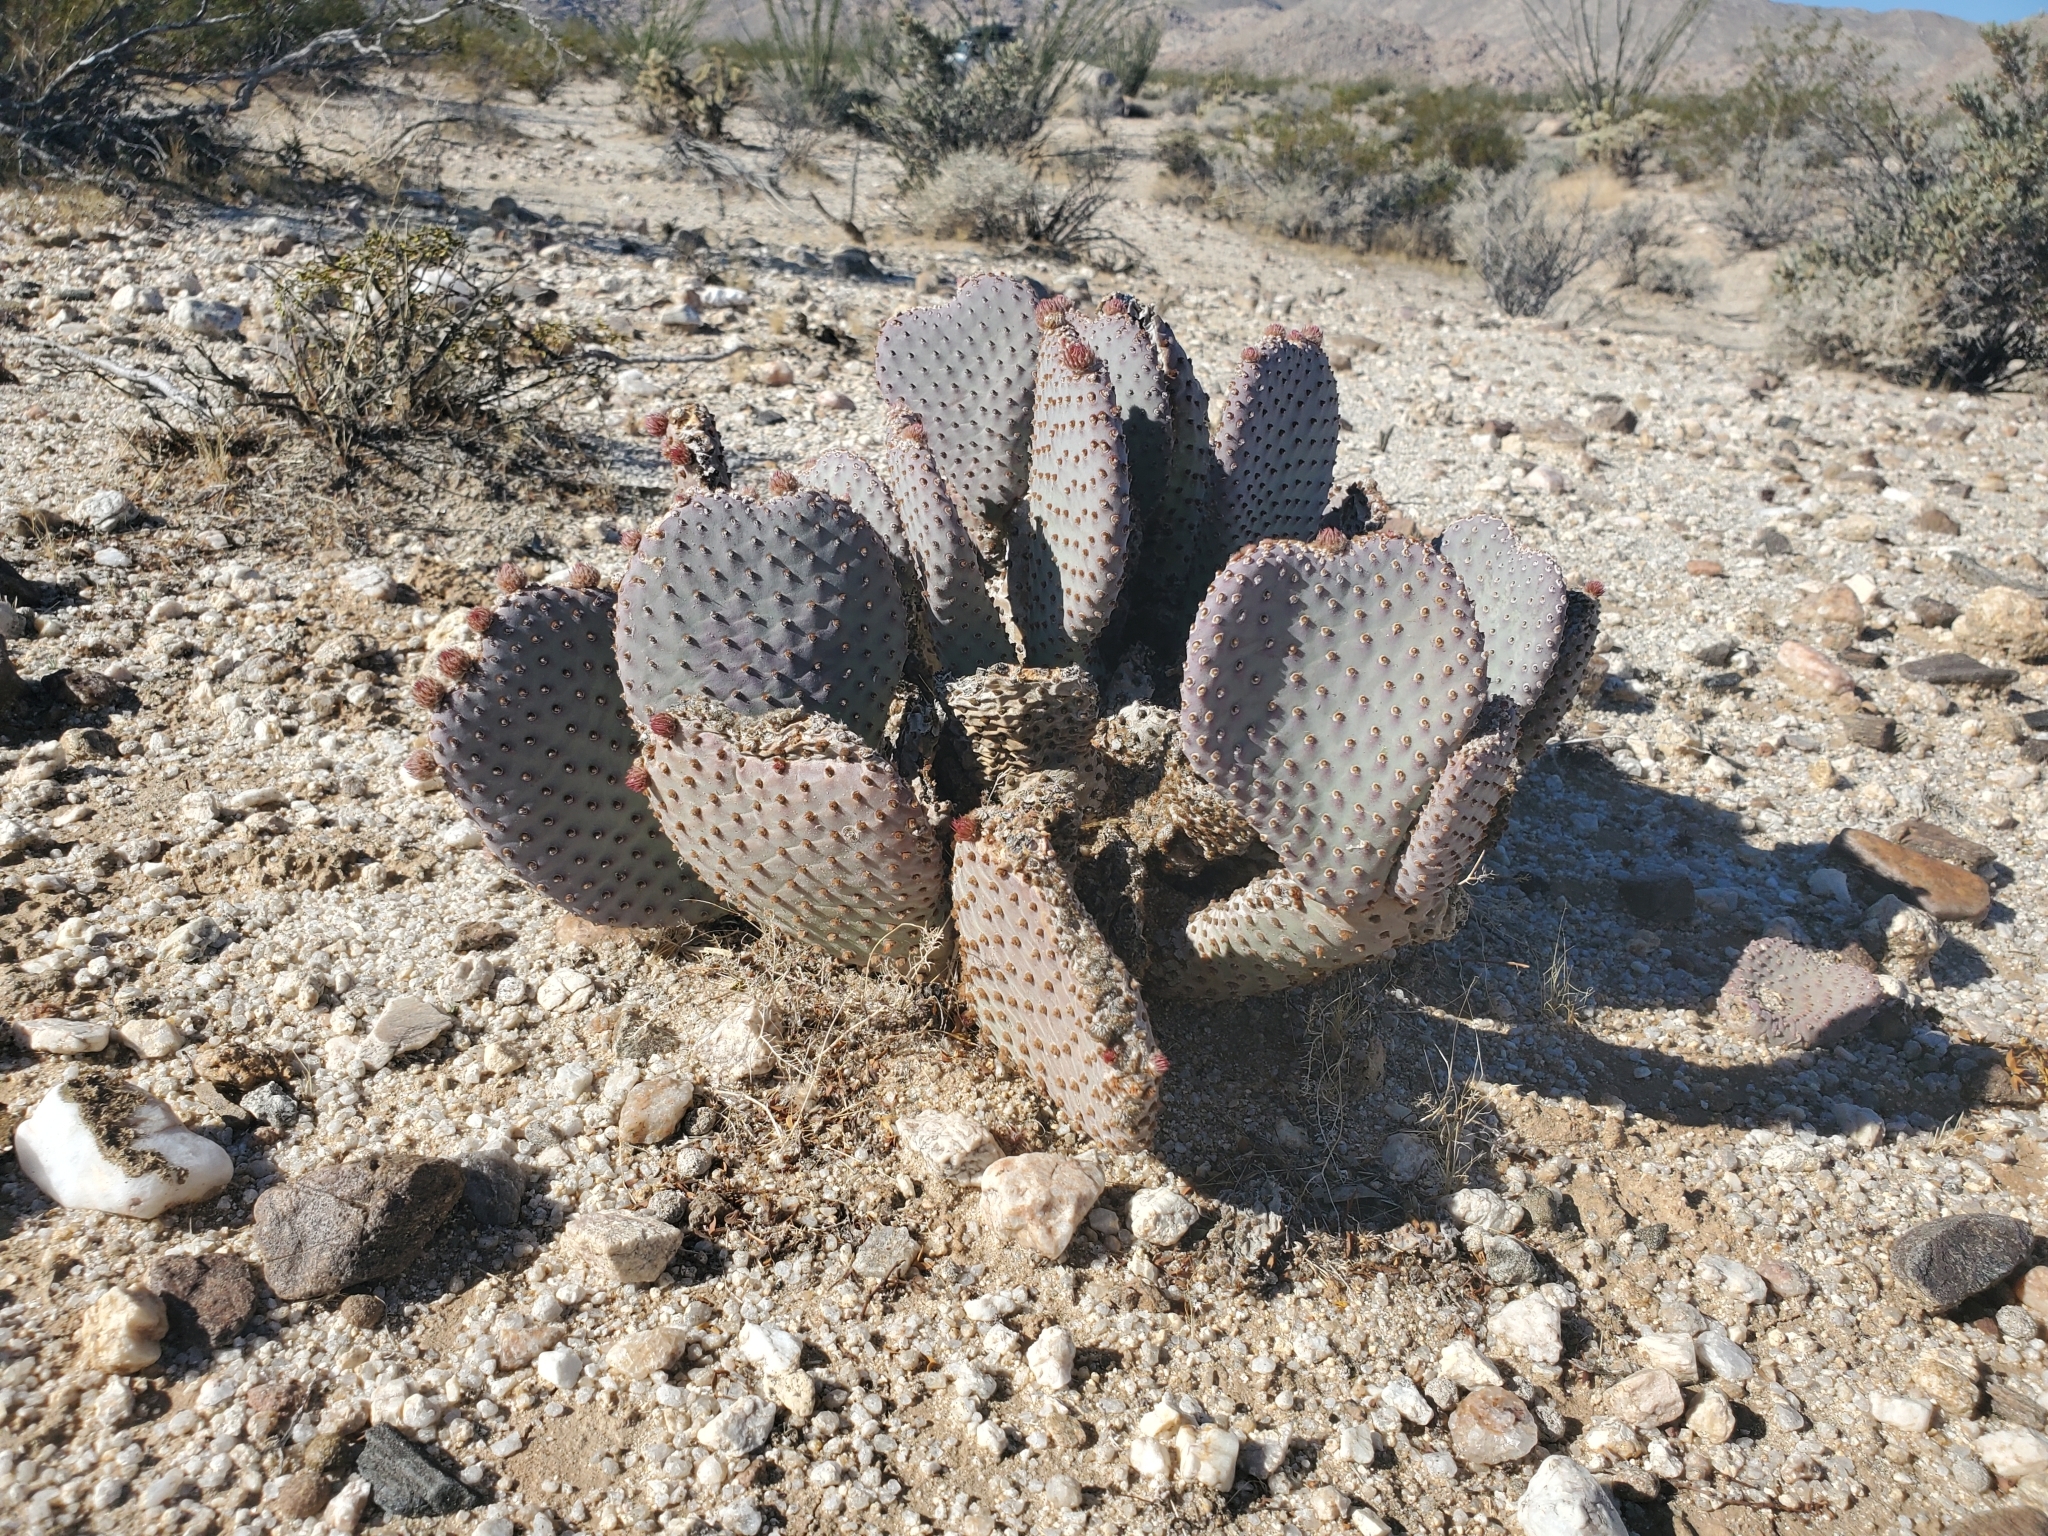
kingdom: Plantae
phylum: Tracheophyta
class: Magnoliopsida
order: Caryophyllales
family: Cactaceae
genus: Opuntia
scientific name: Opuntia basilaris
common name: Beavertail prickly-pear
